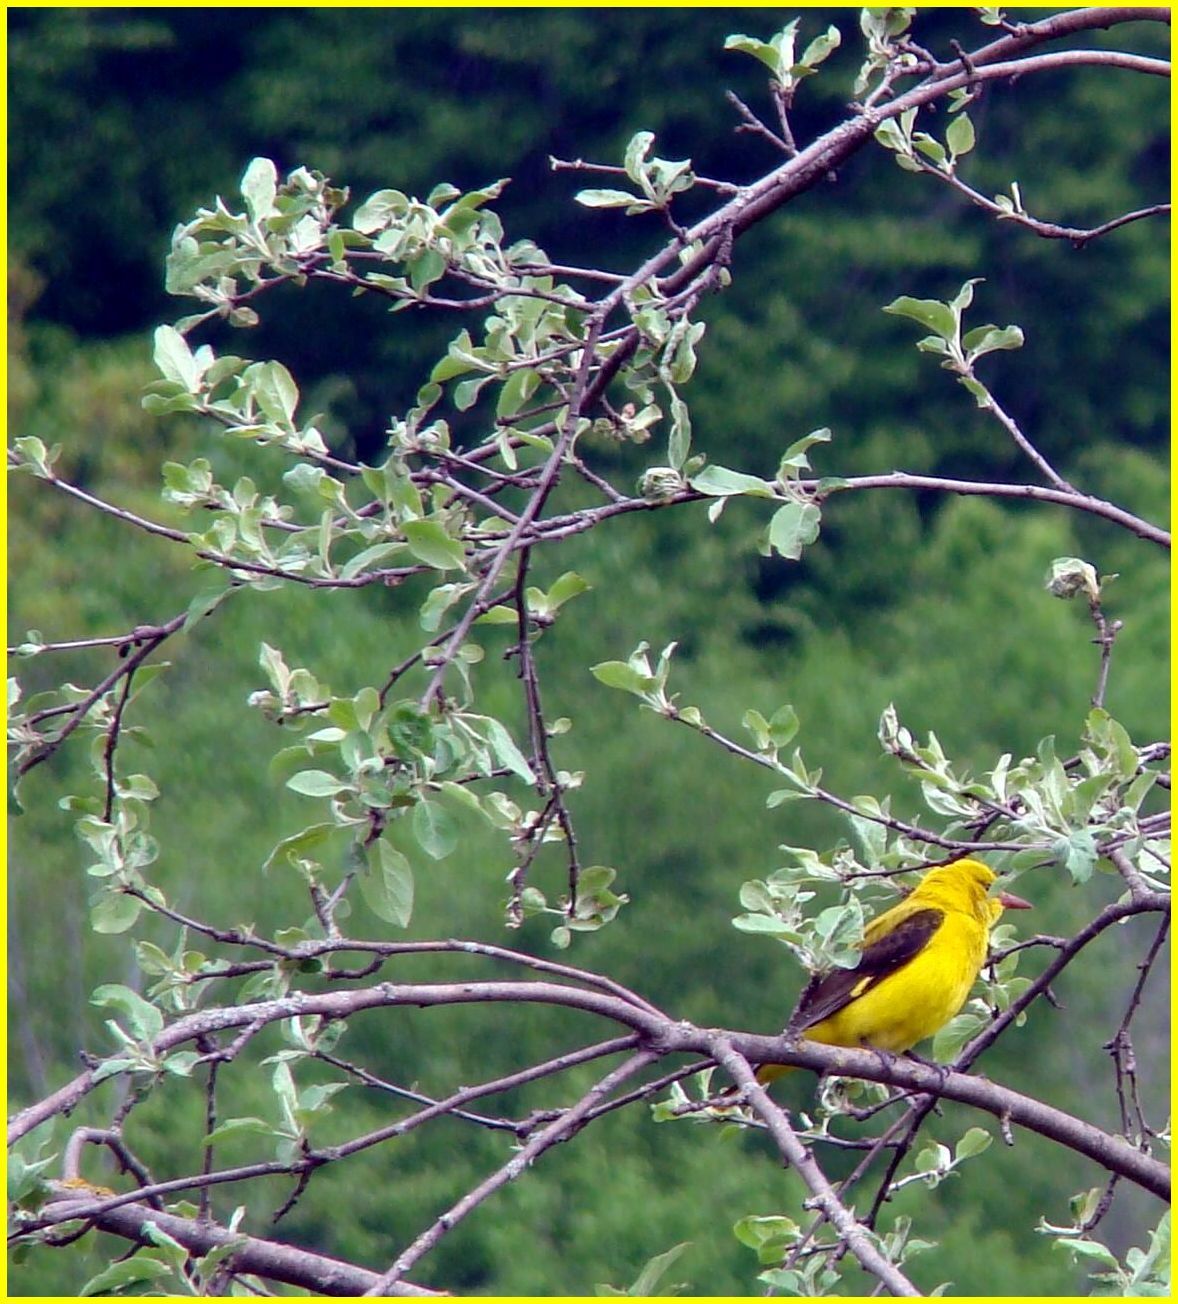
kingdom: Animalia
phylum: Chordata
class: Aves
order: Passeriformes
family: Oriolidae
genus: Oriolus
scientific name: Oriolus oriolus
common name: Eurasian golden oriole
